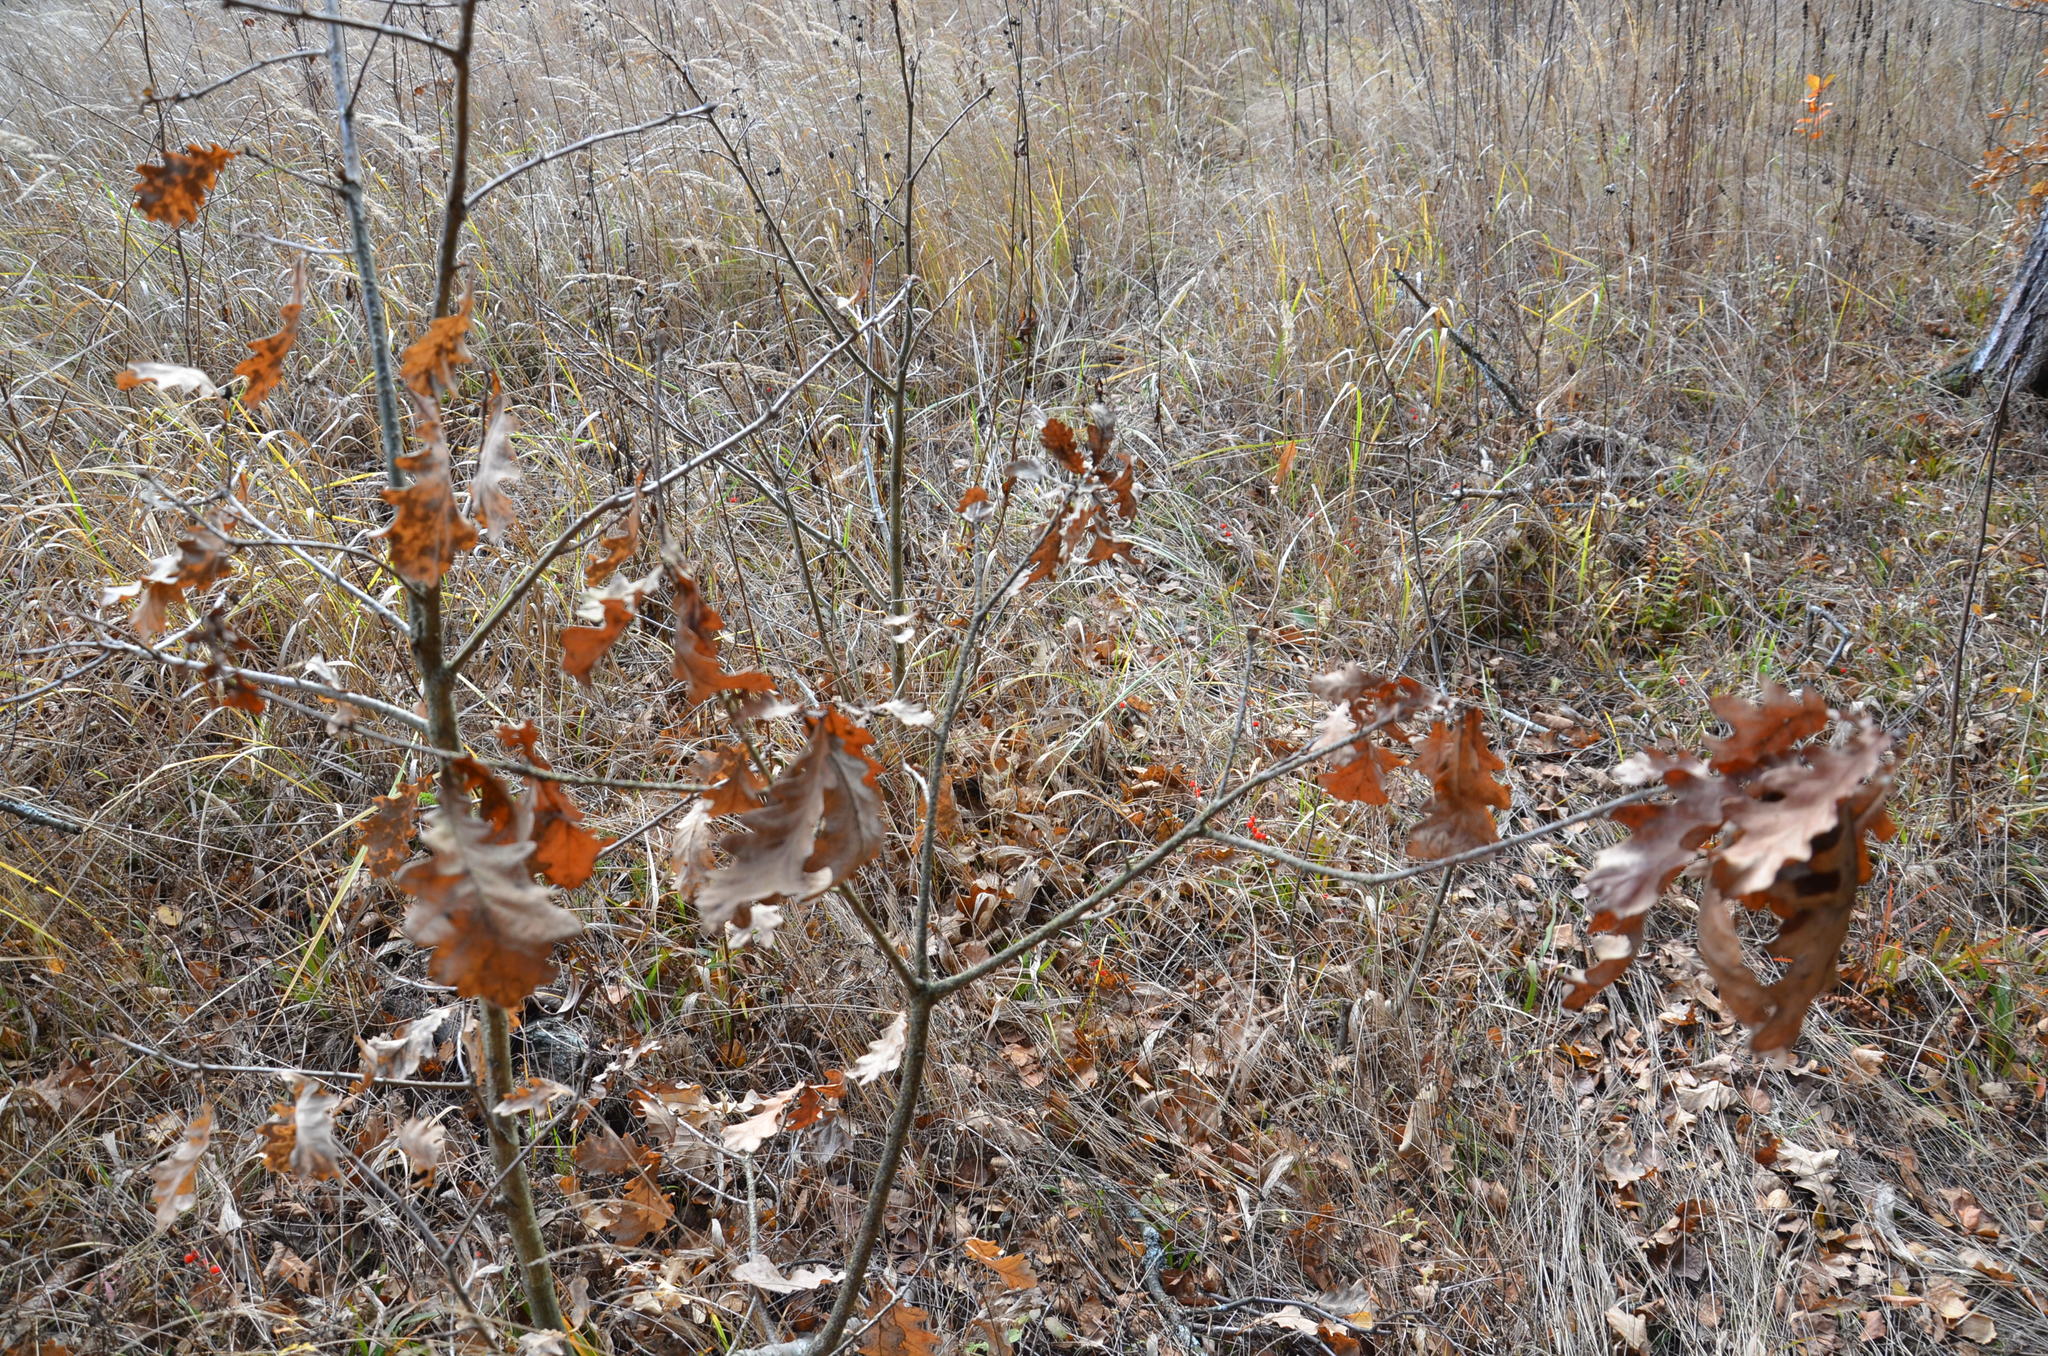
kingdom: Plantae
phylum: Tracheophyta
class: Magnoliopsida
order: Fagales
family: Fagaceae
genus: Quercus
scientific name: Quercus robur
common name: Pedunculate oak
